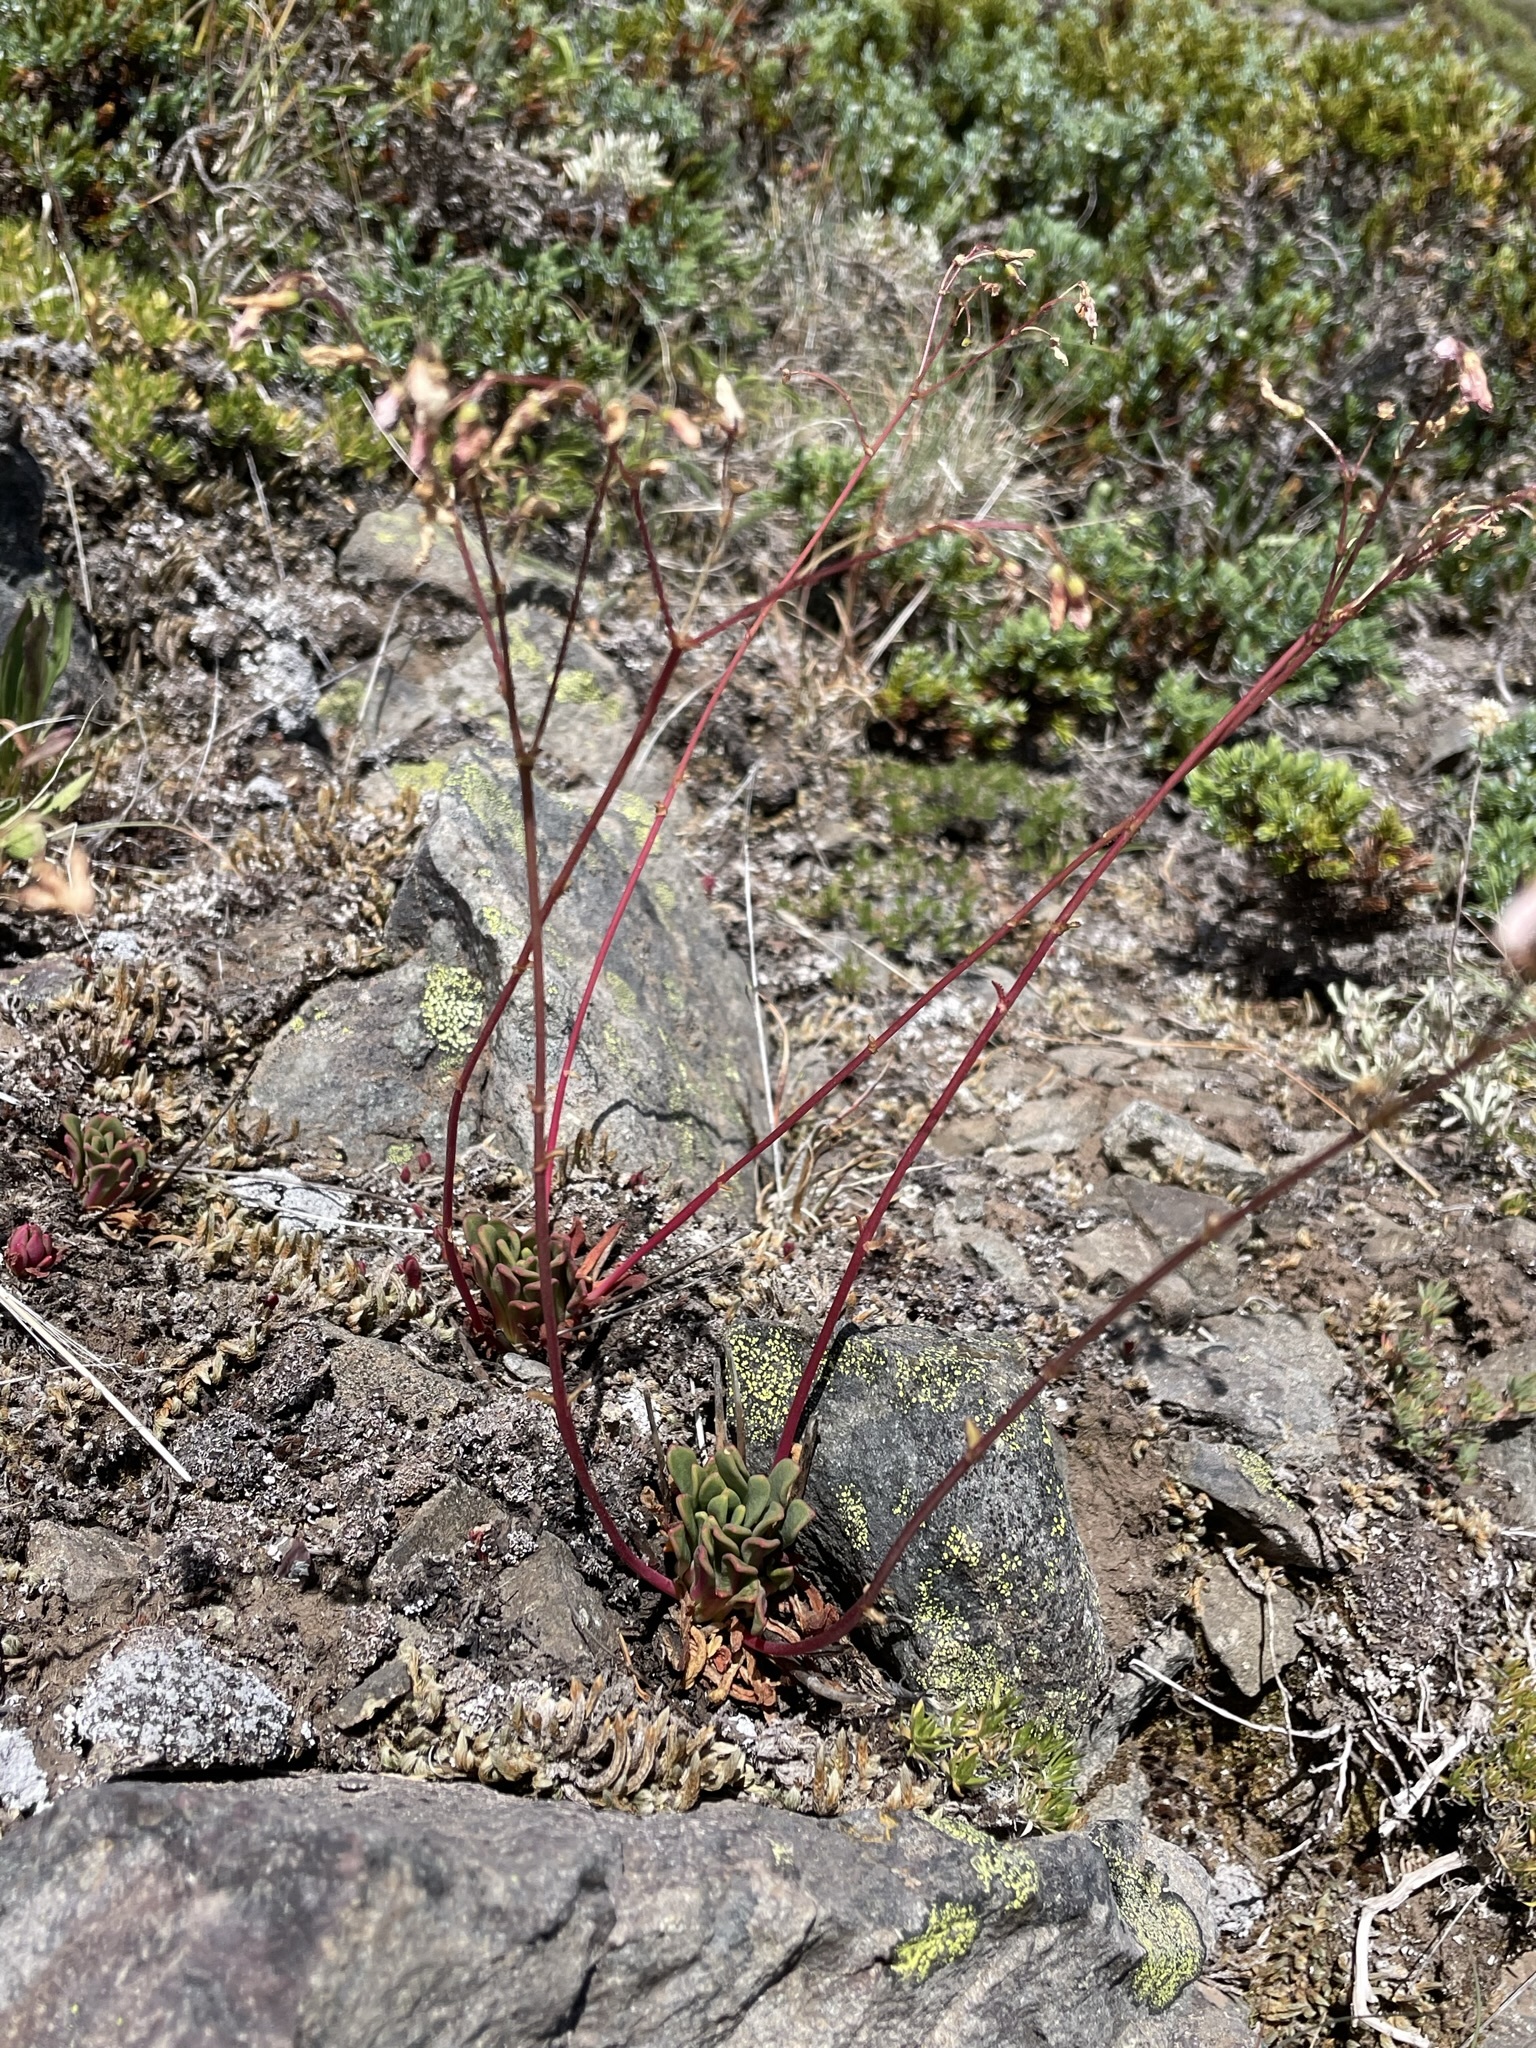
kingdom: Plantae
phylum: Tracheophyta
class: Magnoliopsida
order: Caryophyllales
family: Montiaceae
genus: Lewisia
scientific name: Lewisia columbiana
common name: Columbia lewisia
